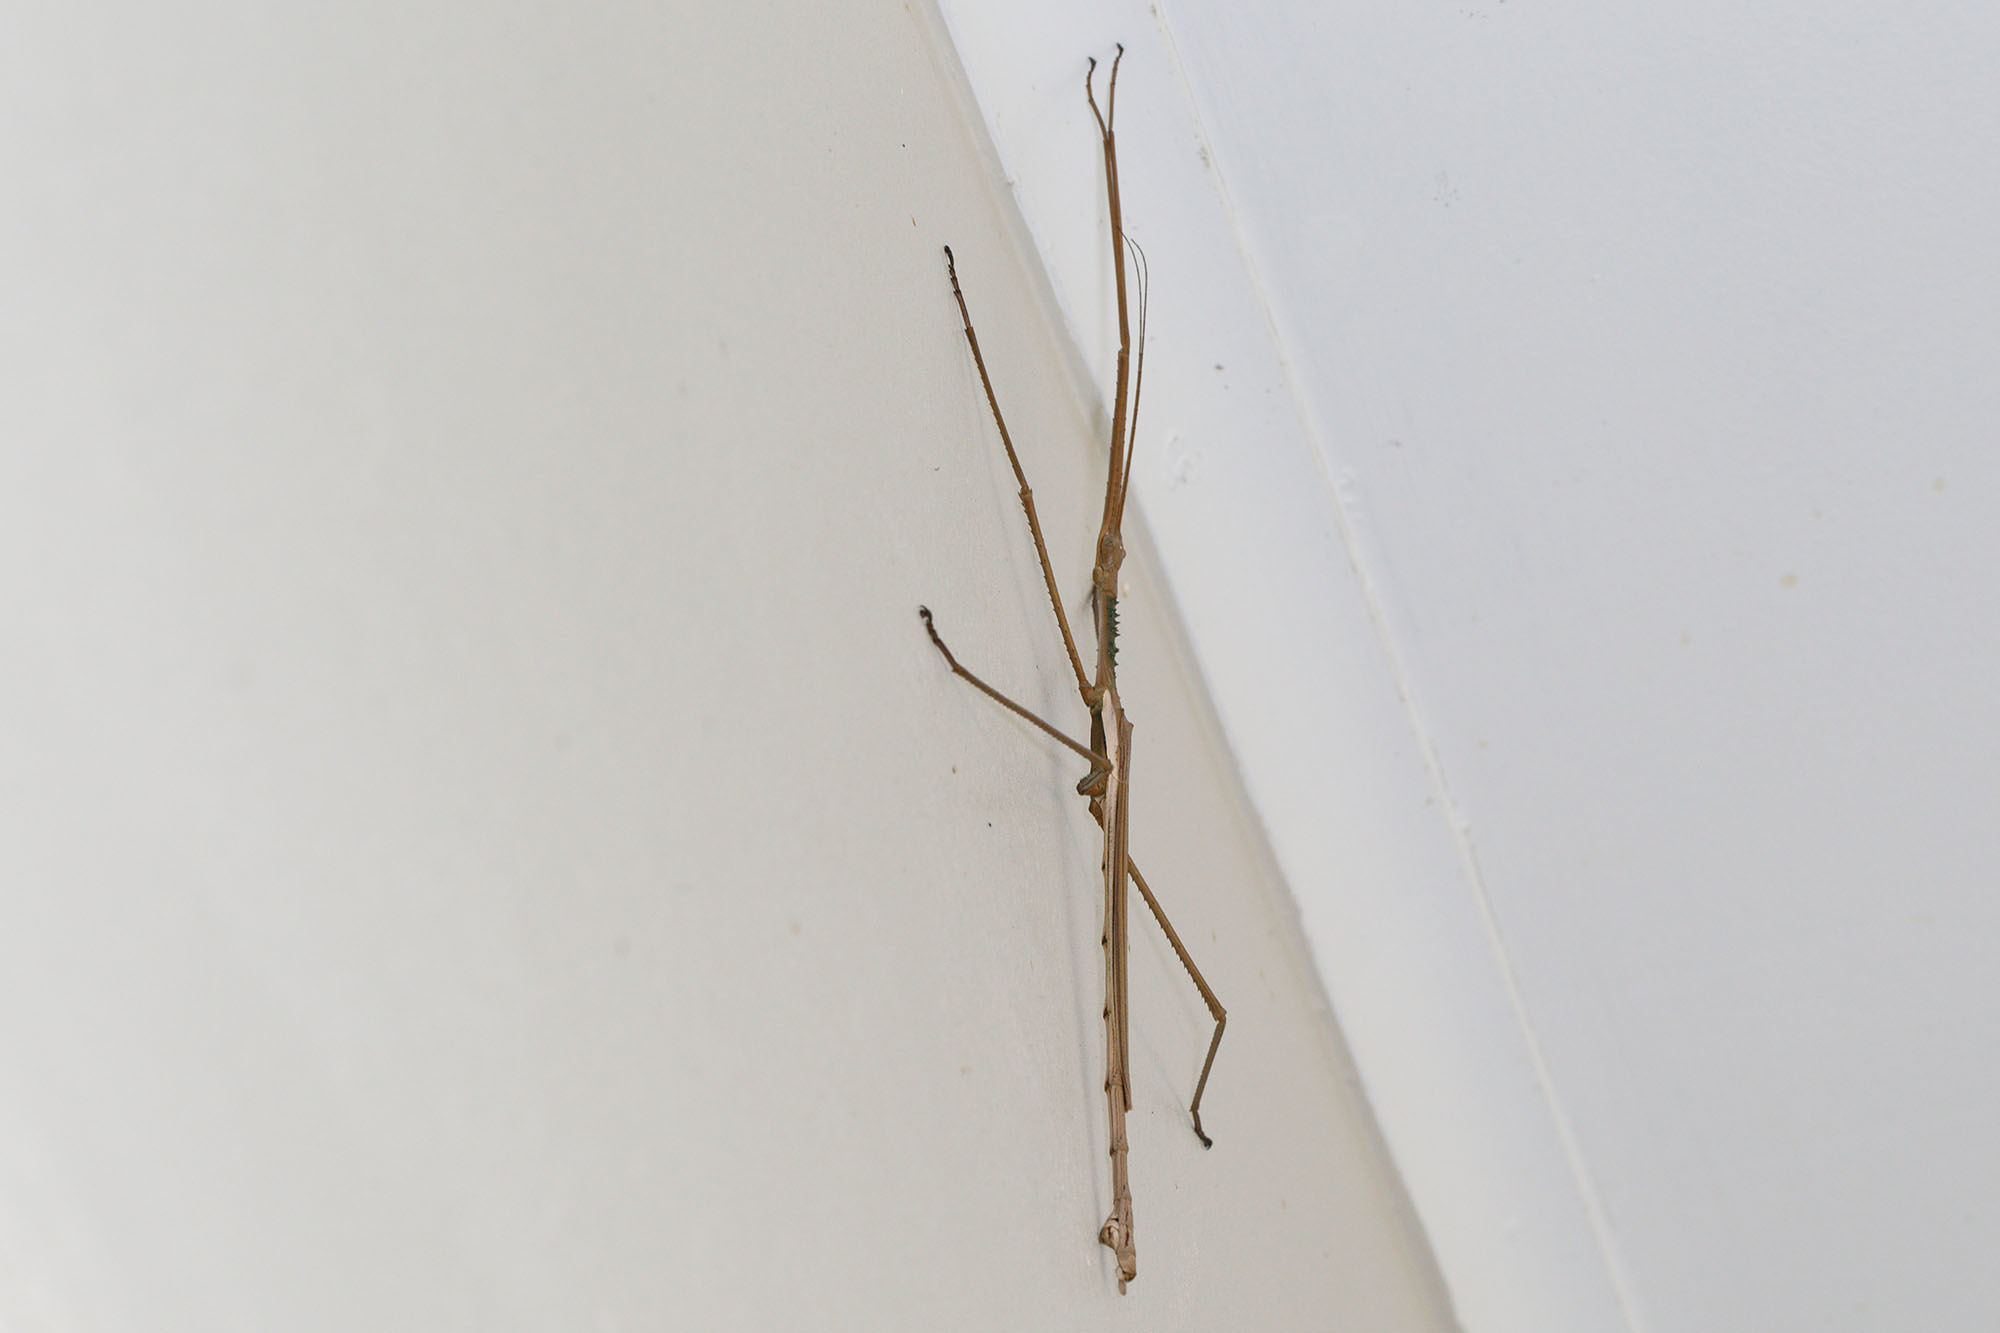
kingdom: Animalia
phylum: Arthropoda
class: Insecta
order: Phasmida
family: Phasmatidae
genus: Acrophylla
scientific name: Acrophylla wuelfingi
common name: Wülfing's stick insect
